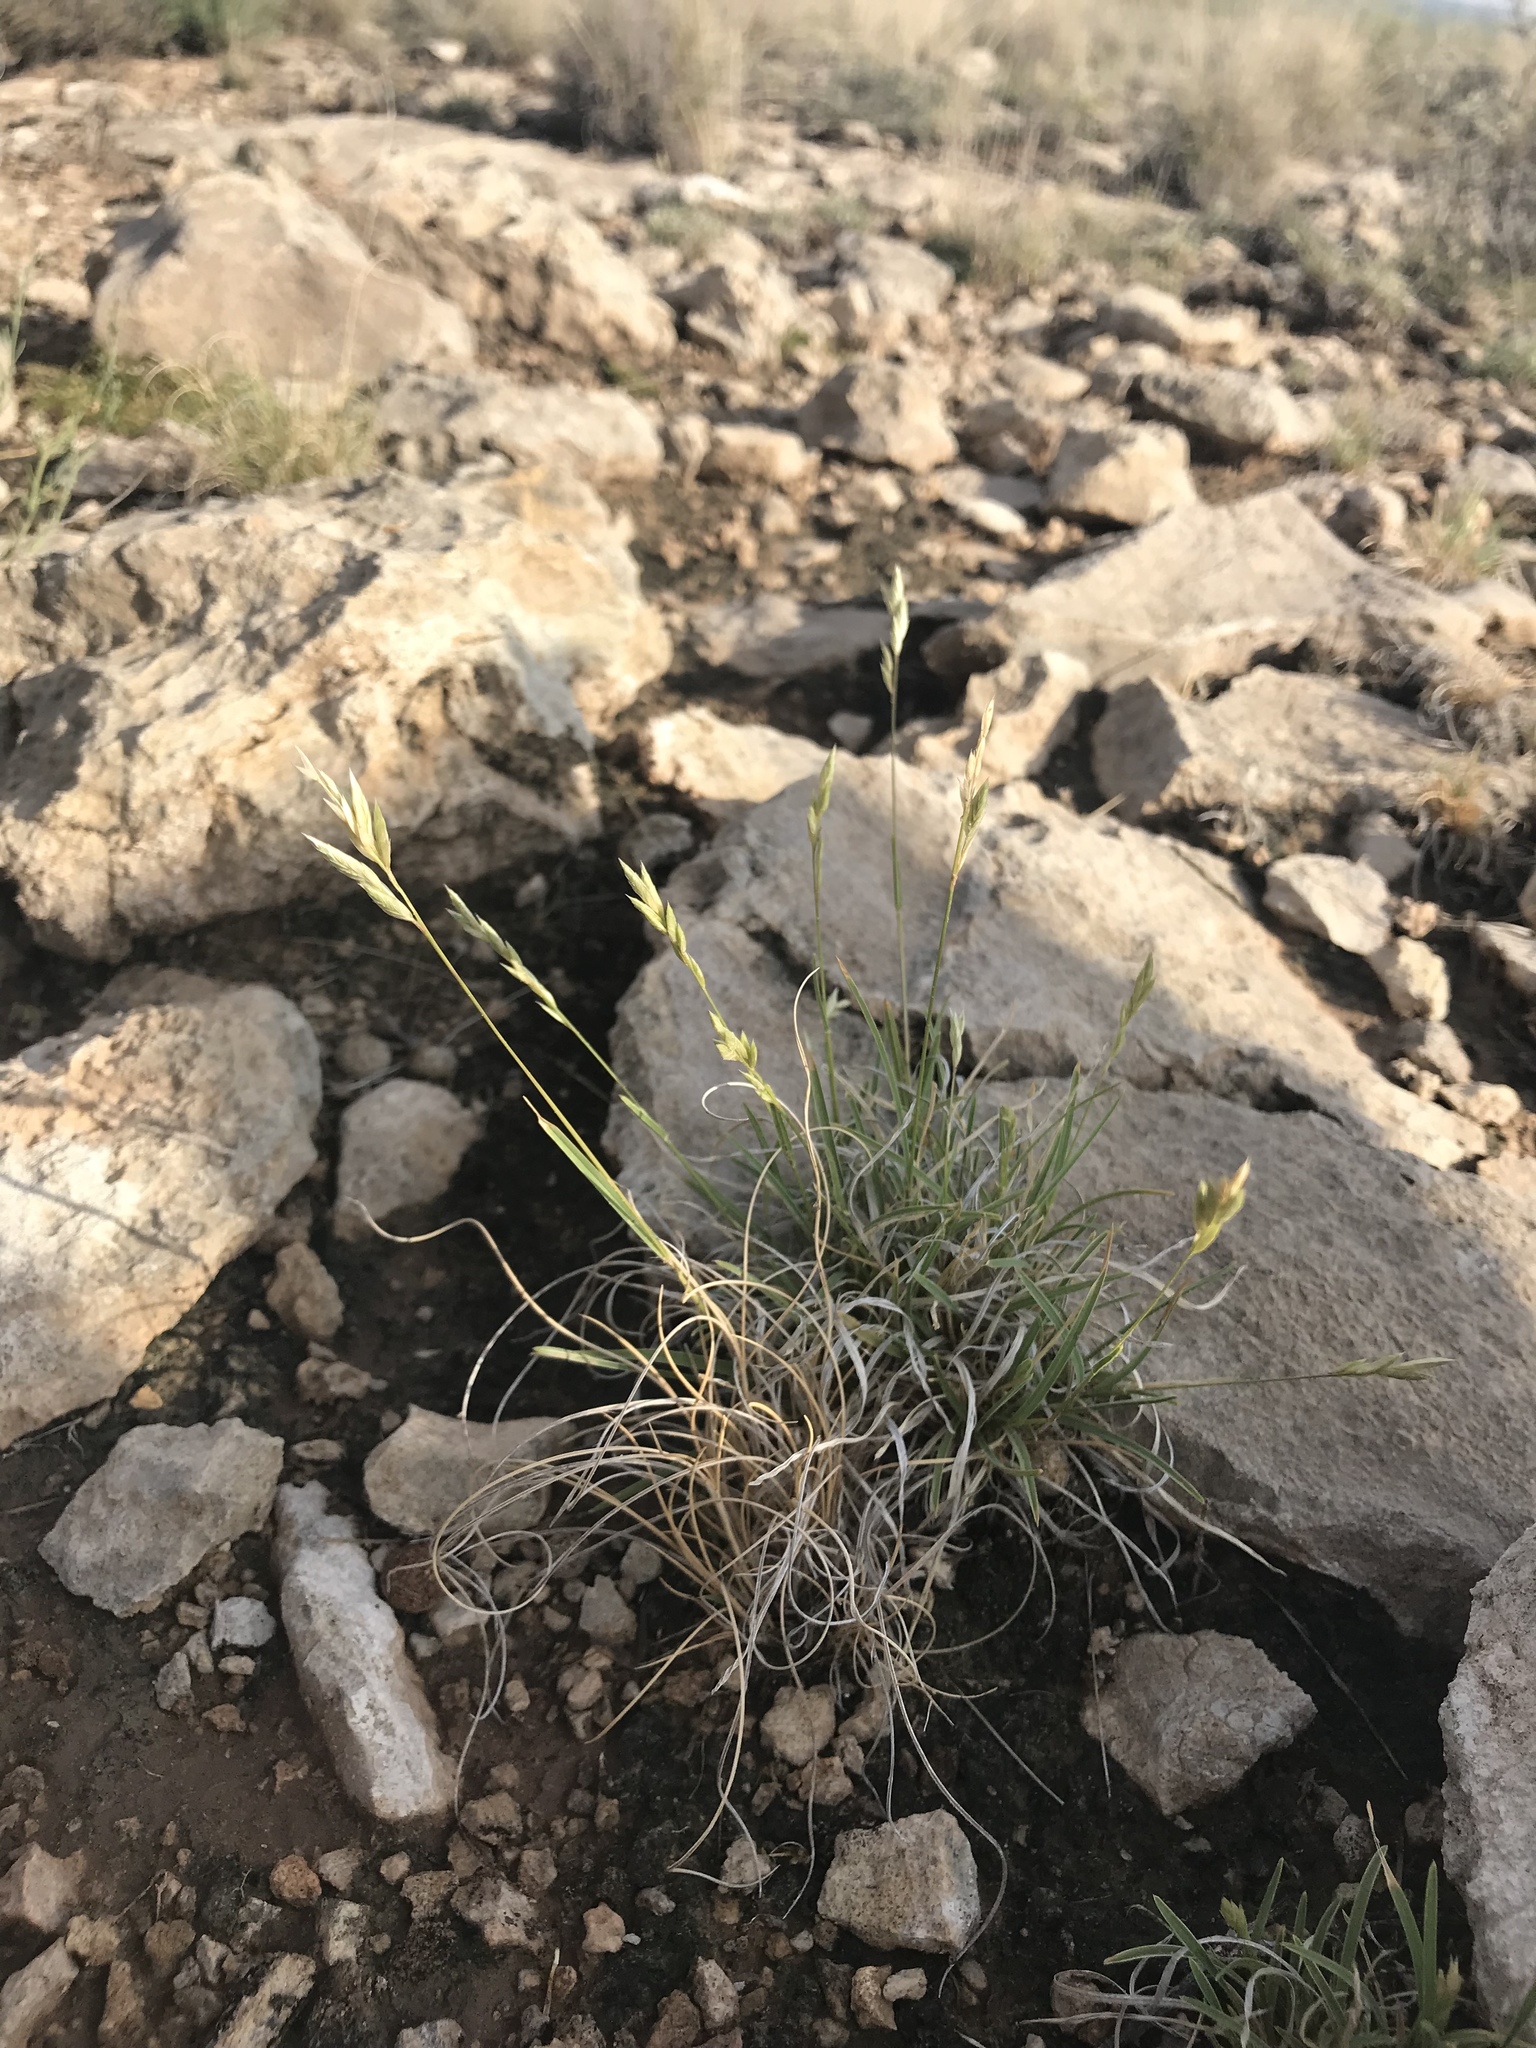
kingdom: Plantae
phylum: Tracheophyta
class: Liliopsida
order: Poales
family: Poaceae
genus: Erioneuron
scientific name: Erioneuron pilosum
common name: Hairy woolly grass
